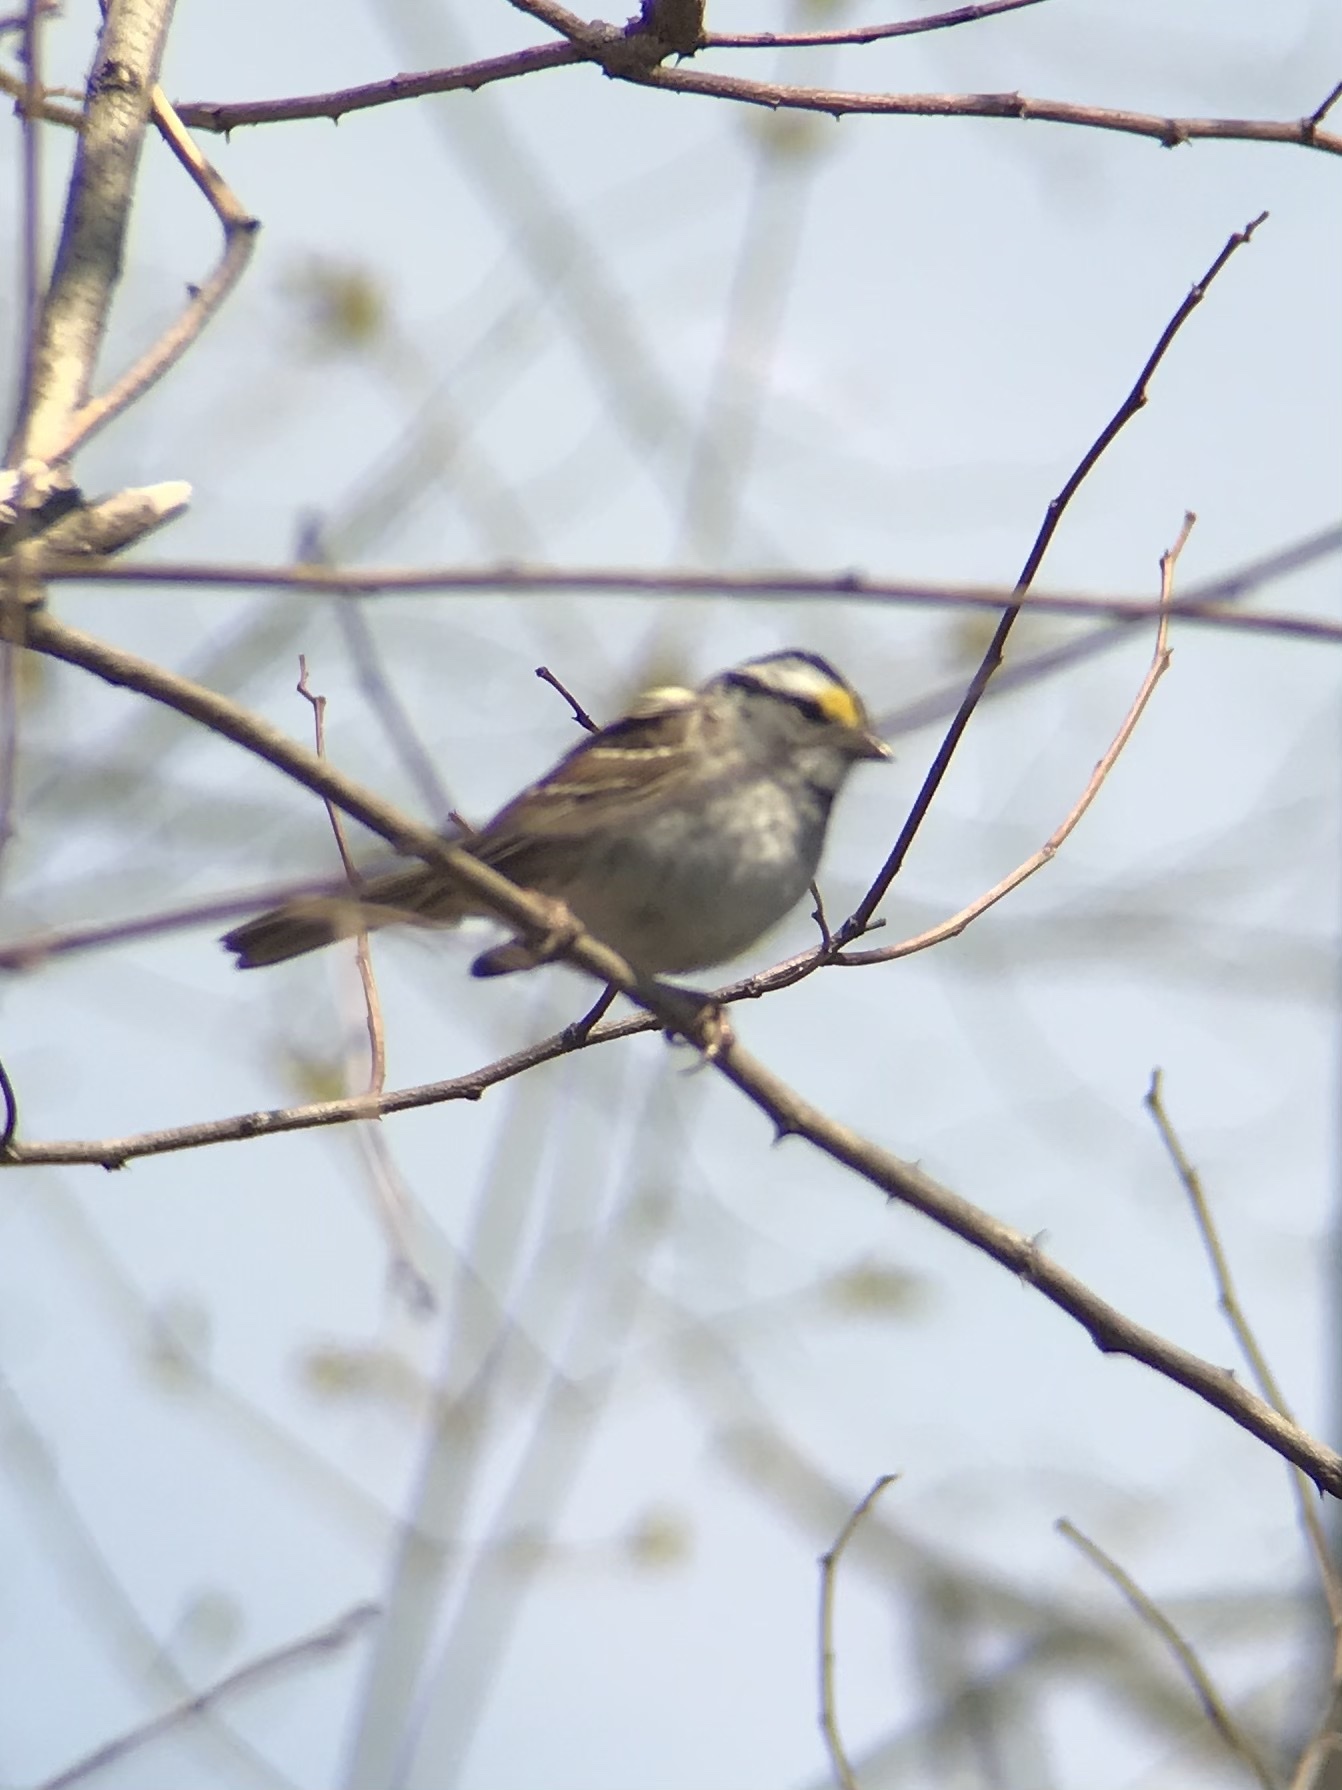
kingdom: Animalia
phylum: Chordata
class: Aves
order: Passeriformes
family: Passerellidae
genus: Zonotrichia
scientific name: Zonotrichia albicollis
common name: White-throated sparrow
